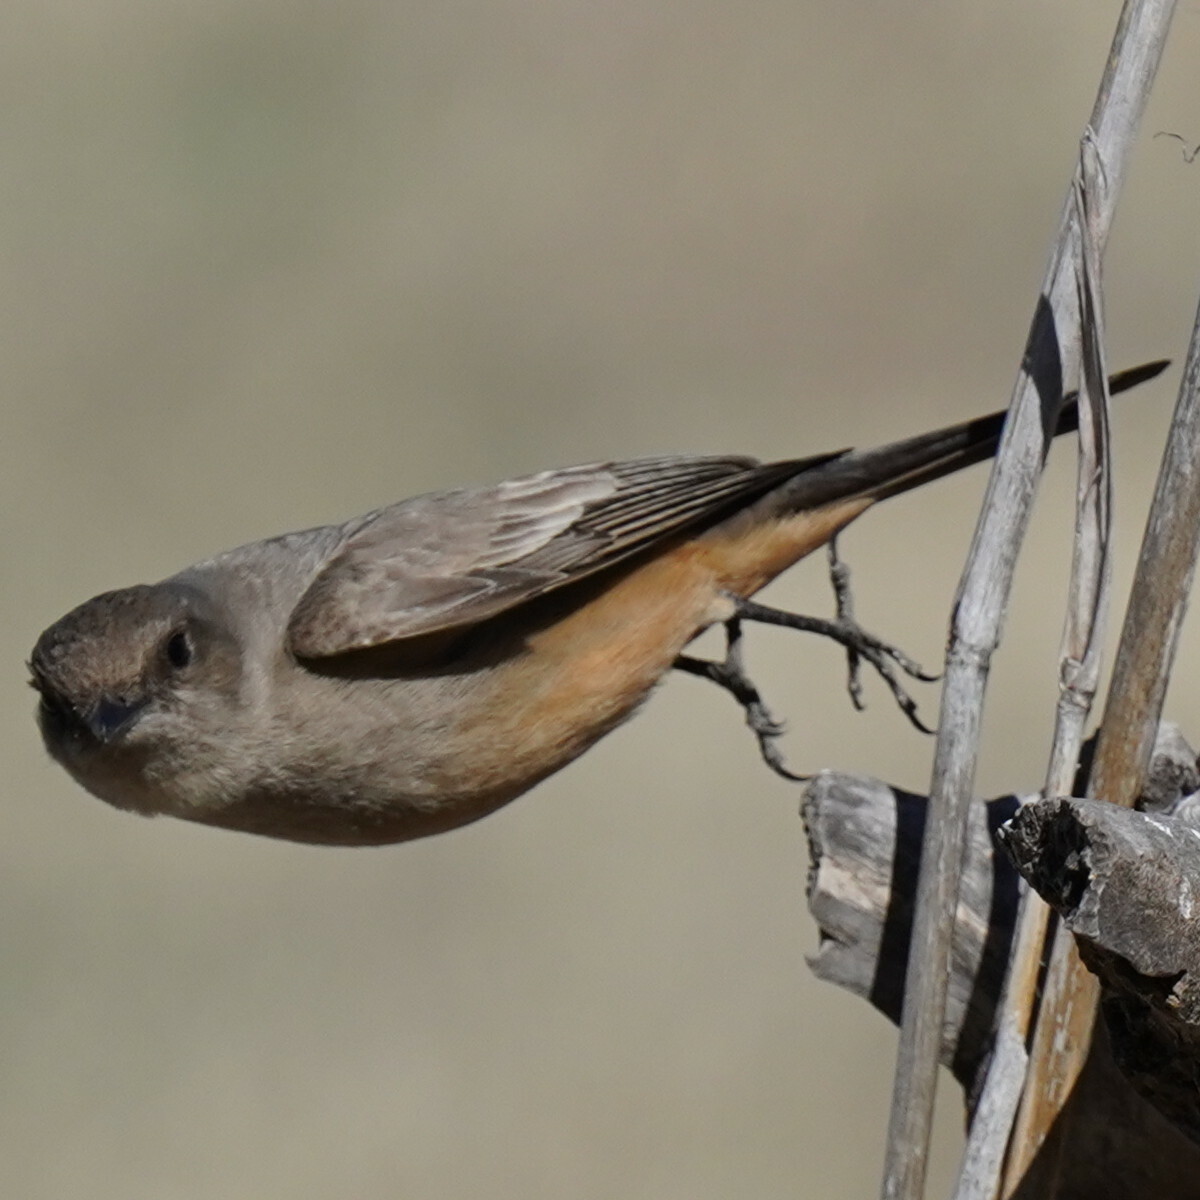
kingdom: Animalia
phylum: Chordata
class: Aves
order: Passeriformes
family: Tyrannidae
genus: Sayornis
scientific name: Sayornis saya
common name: Say's phoebe
